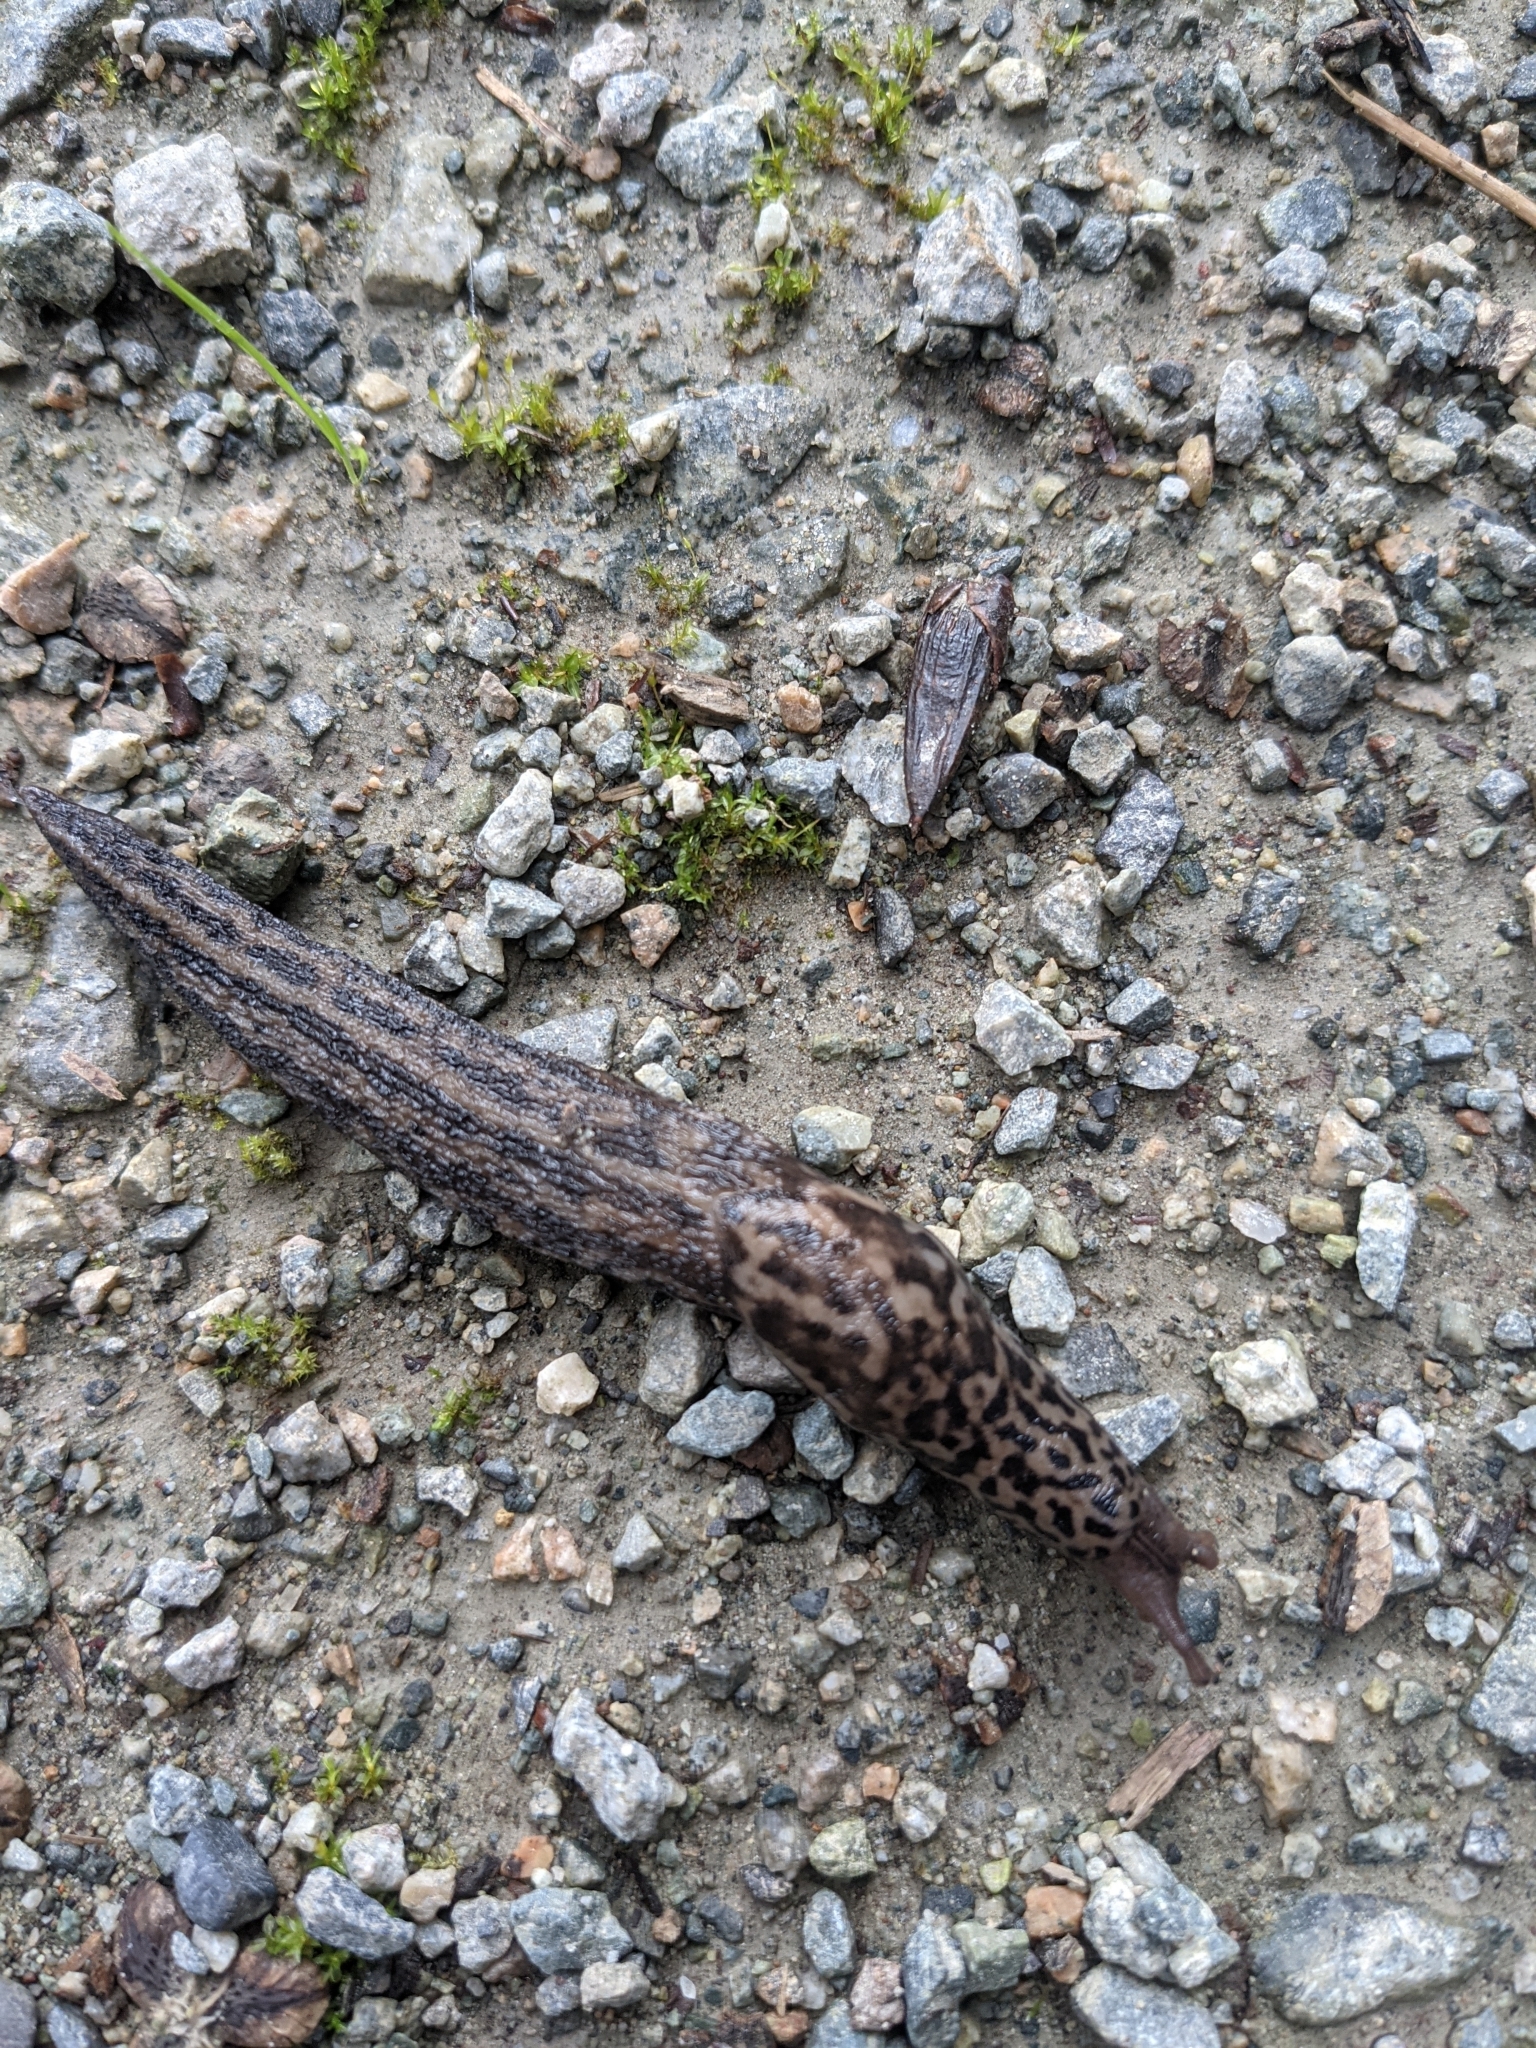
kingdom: Animalia
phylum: Mollusca
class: Gastropoda
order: Stylommatophora
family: Limacidae
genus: Limax
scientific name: Limax maximus
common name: Great grey slug
